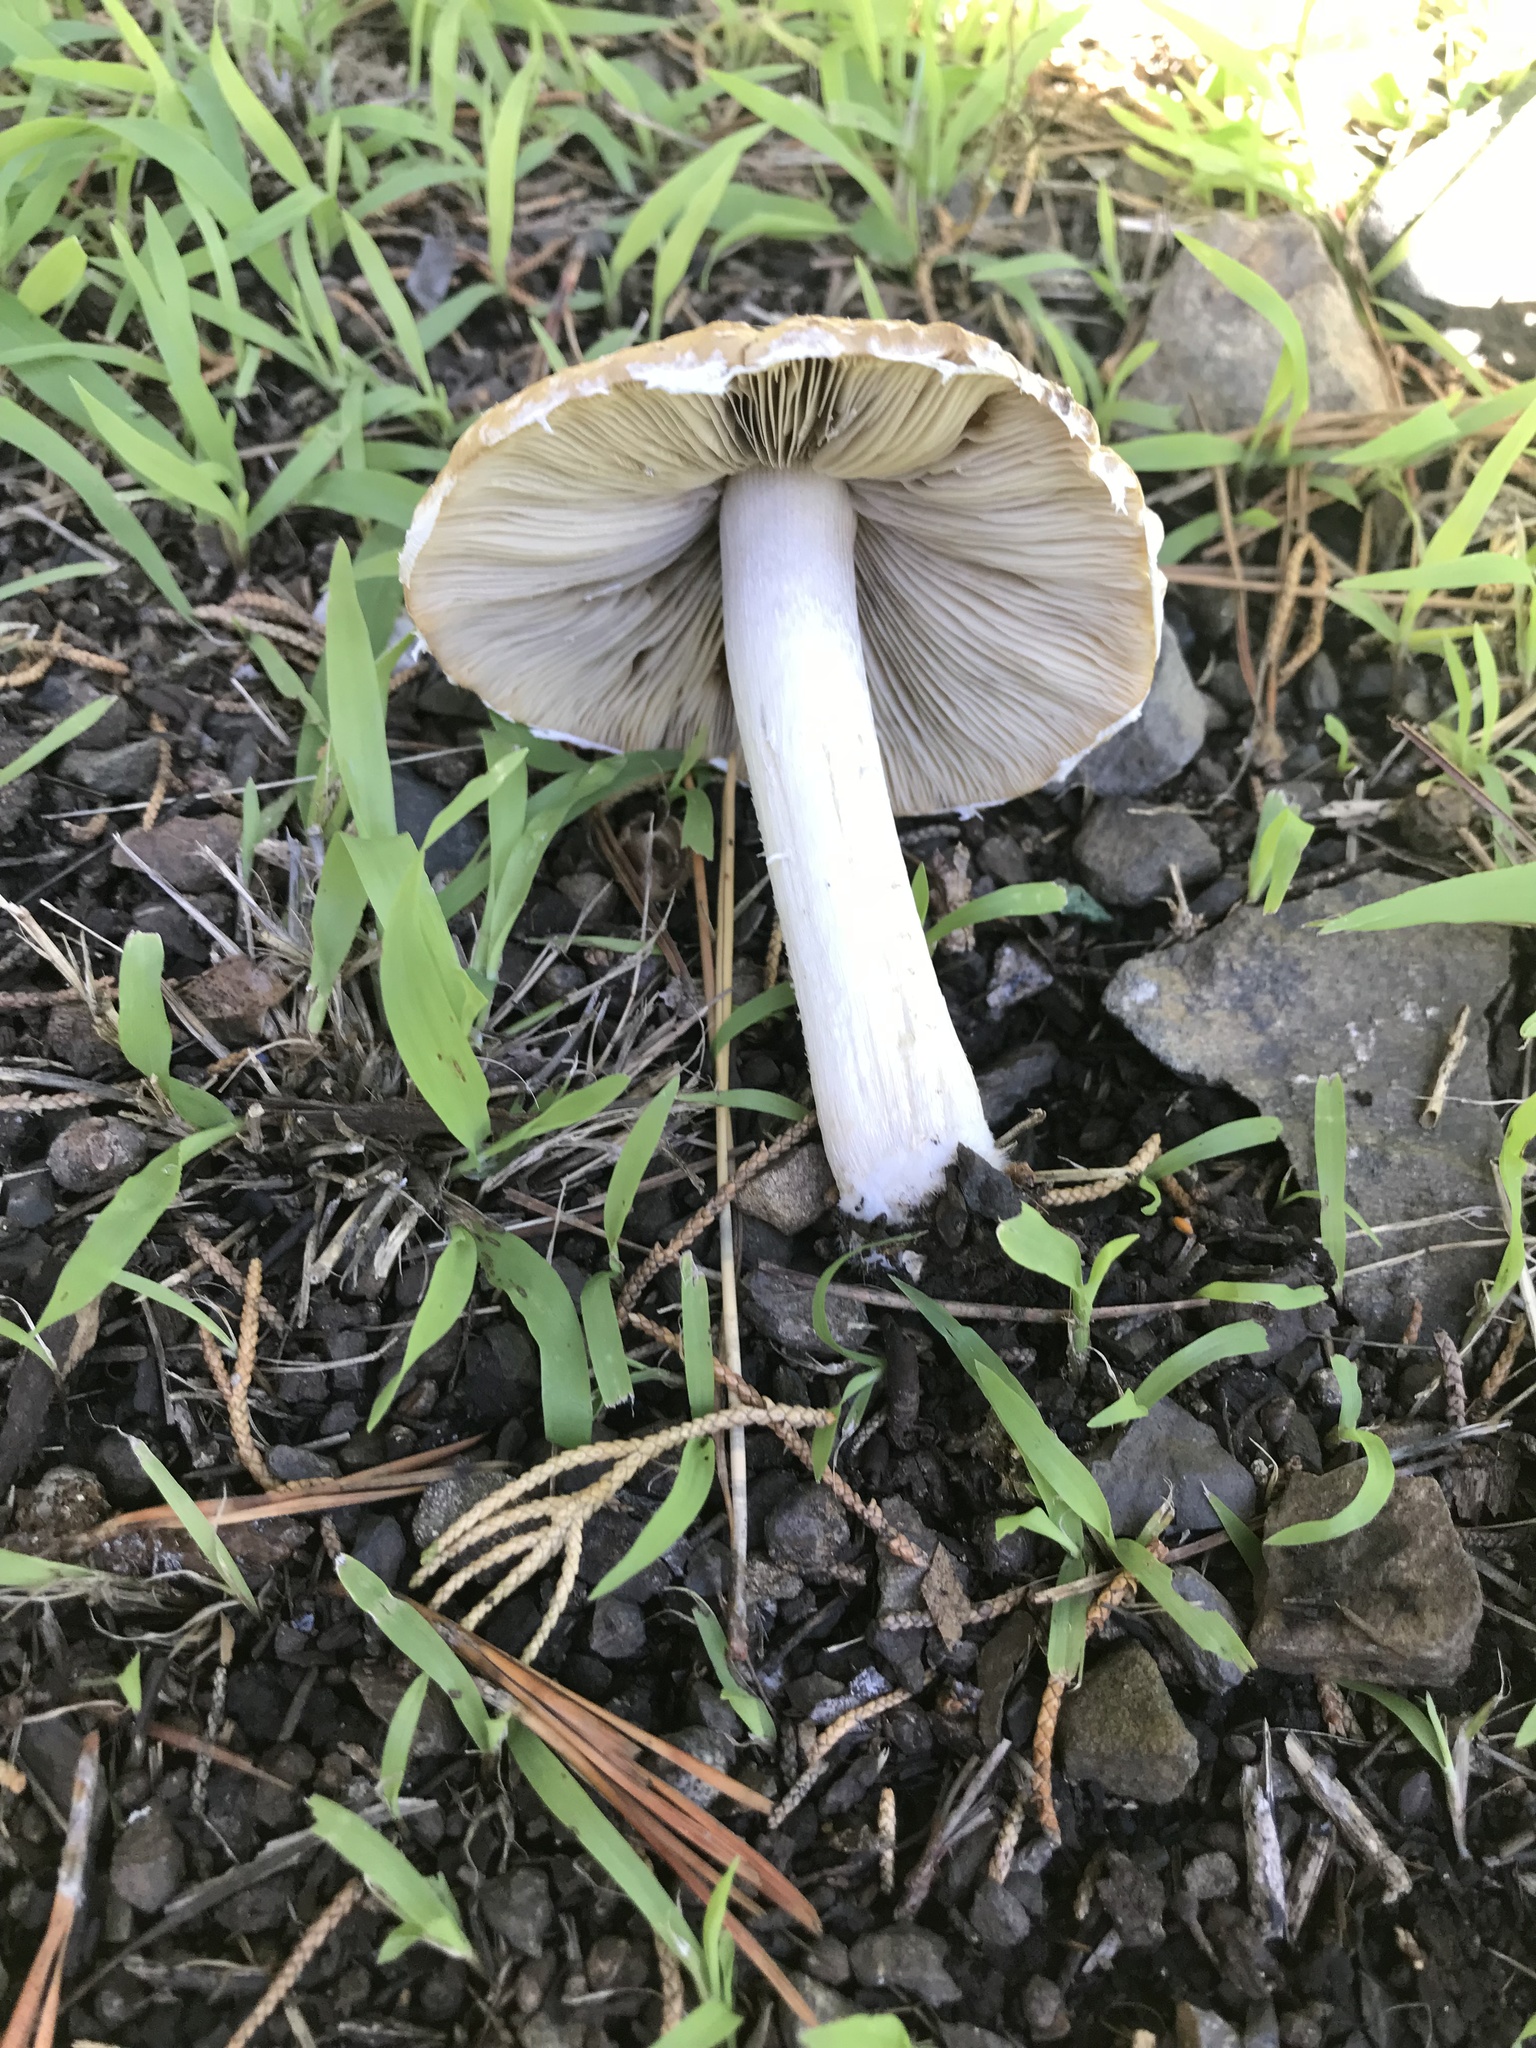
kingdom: Fungi
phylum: Basidiomycota
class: Agaricomycetes
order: Agaricales
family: Psathyrellaceae
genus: Candolleomyces
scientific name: Candolleomyces candolleanus
